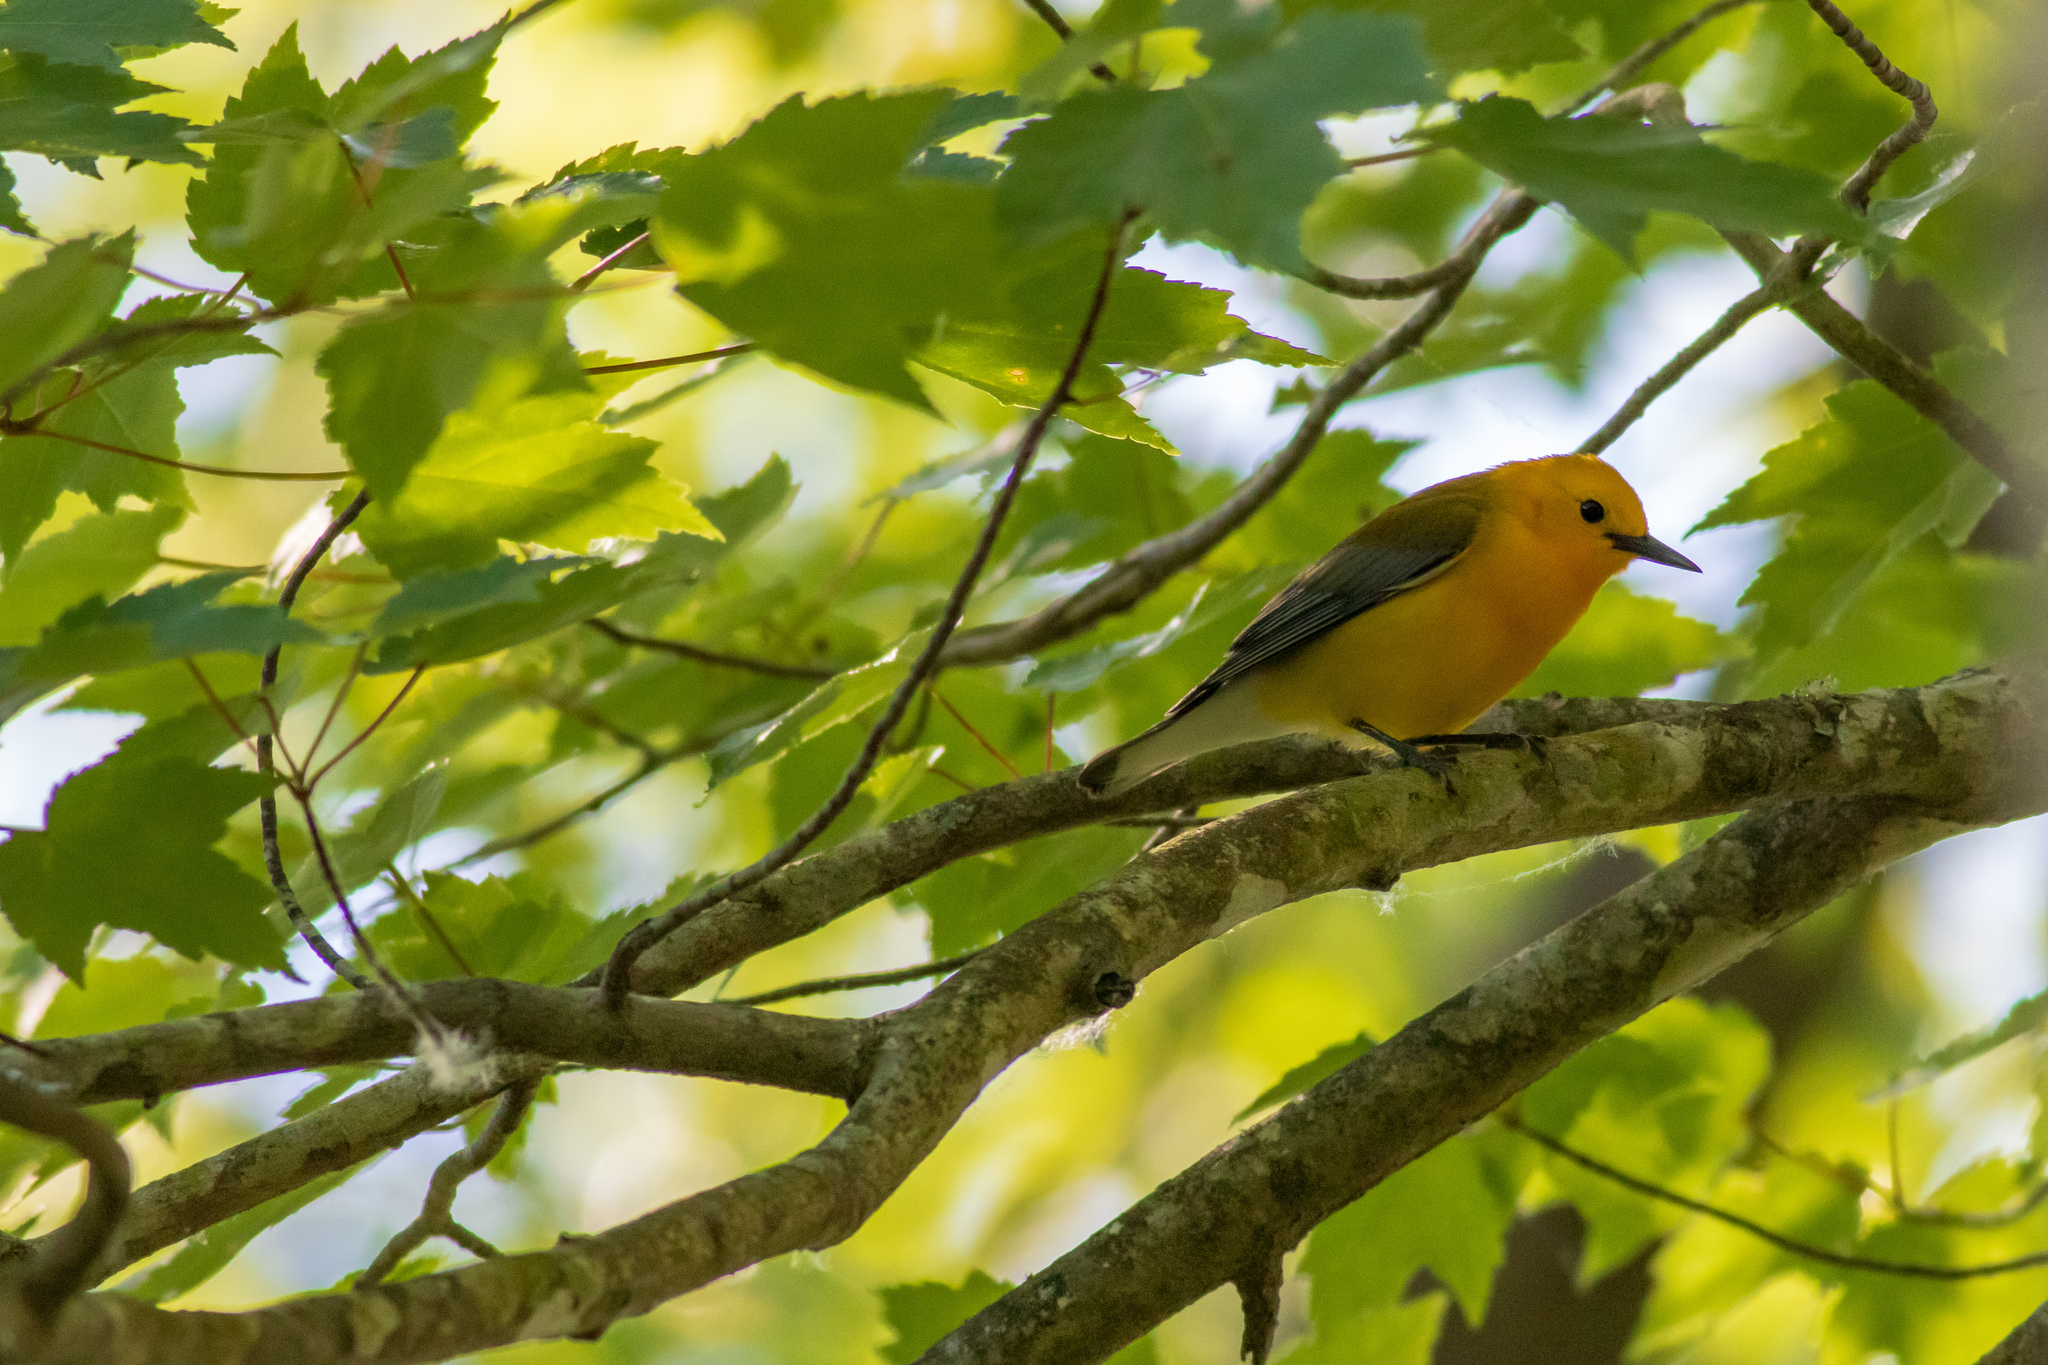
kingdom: Animalia
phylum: Chordata
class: Aves
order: Passeriformes
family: Parulidae
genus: Protonotaria
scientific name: Protonotaria citrea
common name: Prothonotary warbler
